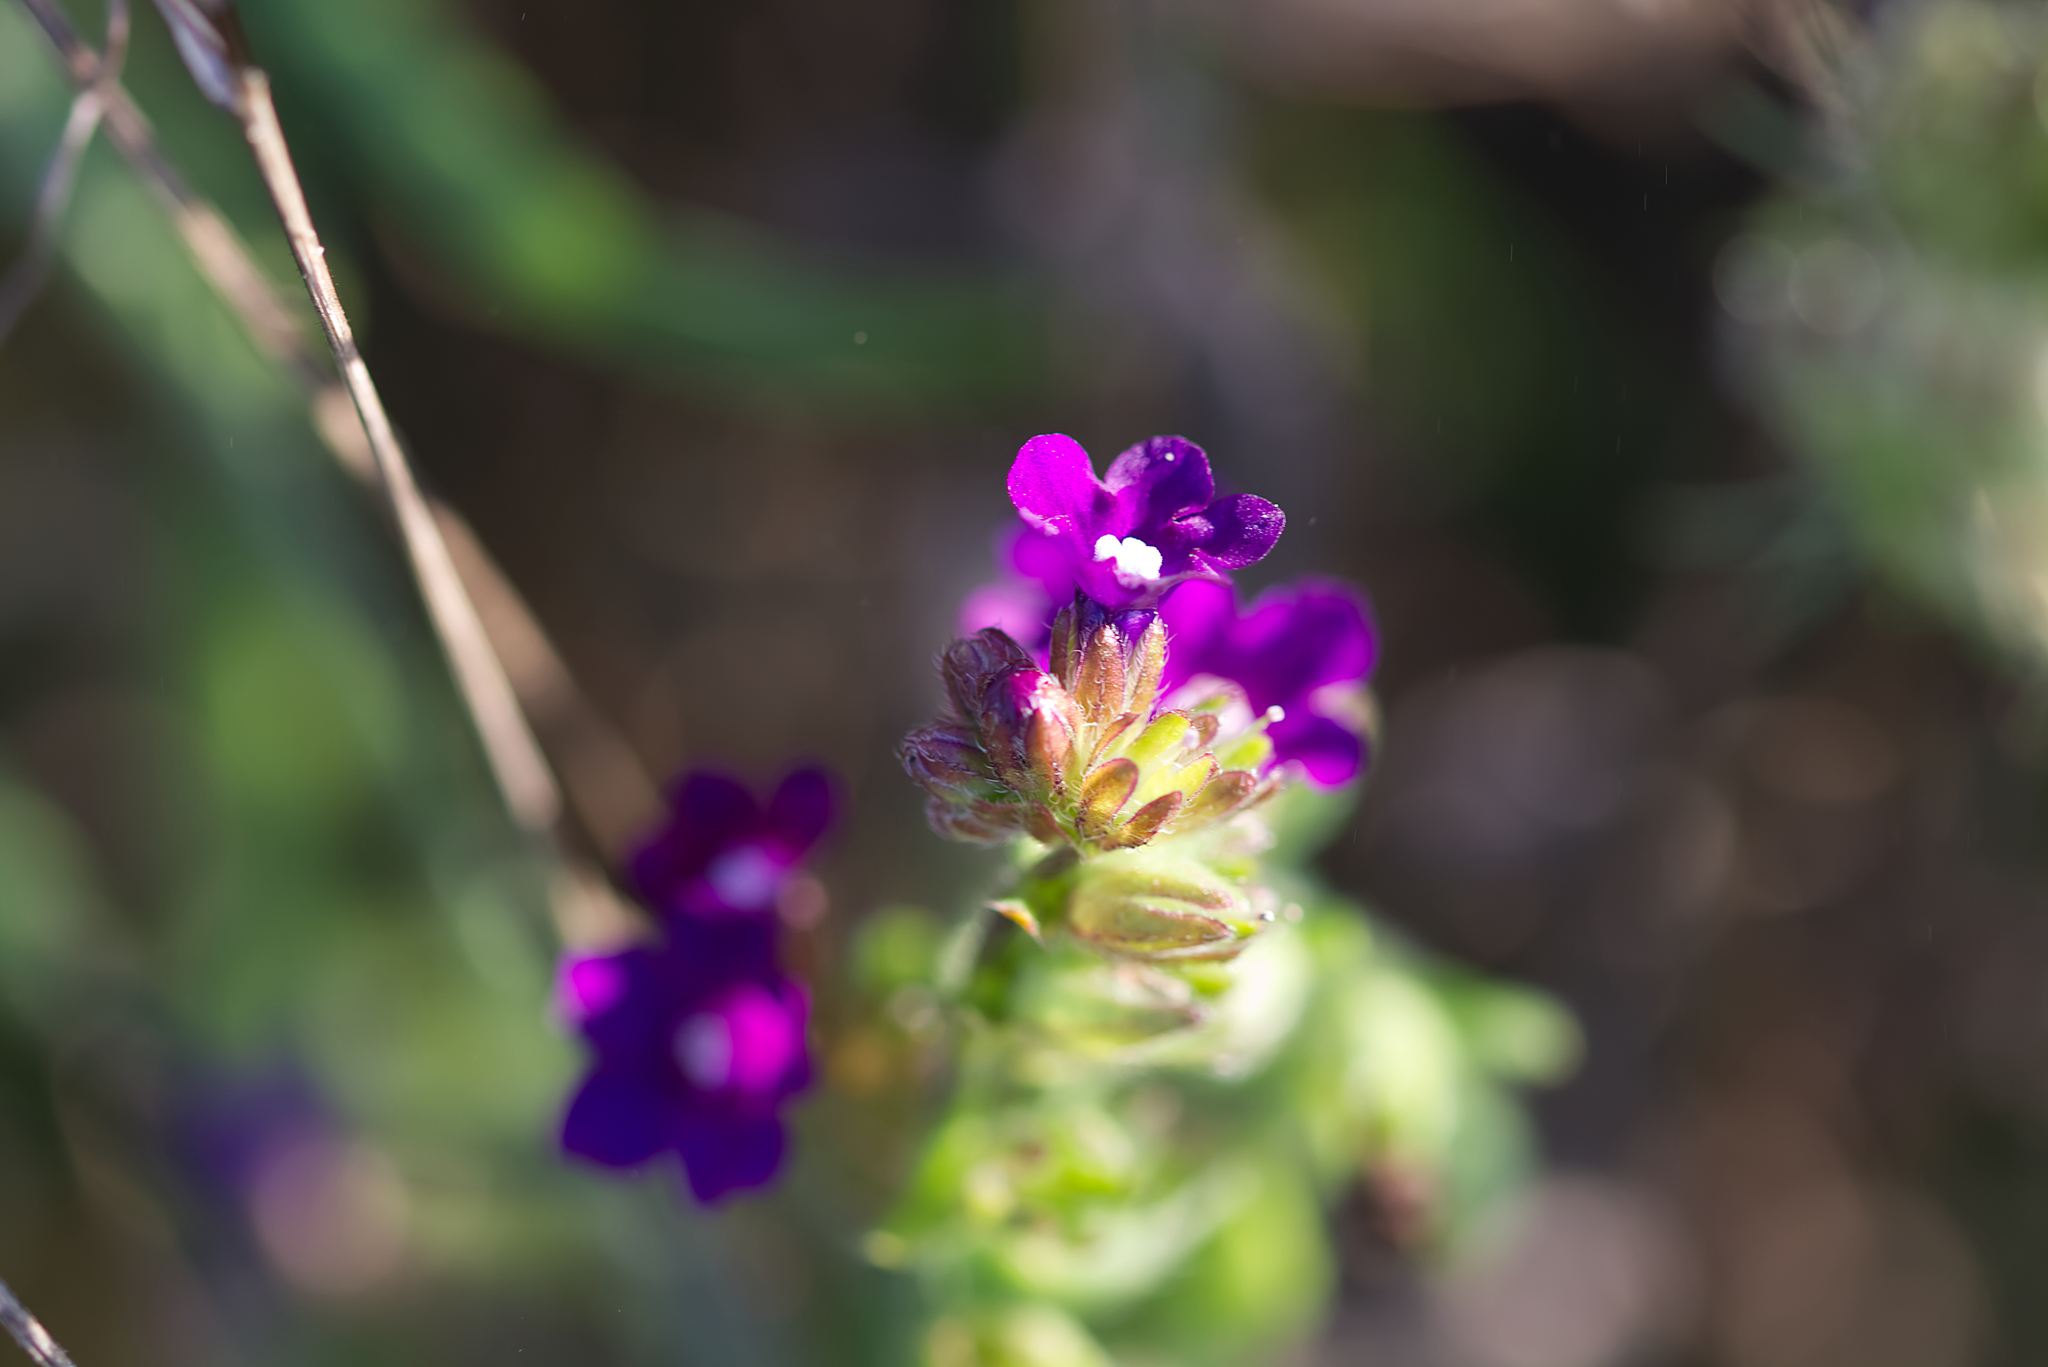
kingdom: Plantae
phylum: Tracheophyta
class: Magnoliopsida
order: Boraginales
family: Boraginaceae
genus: Anchusa
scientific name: Anchusa officinalis
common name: Alkanet
